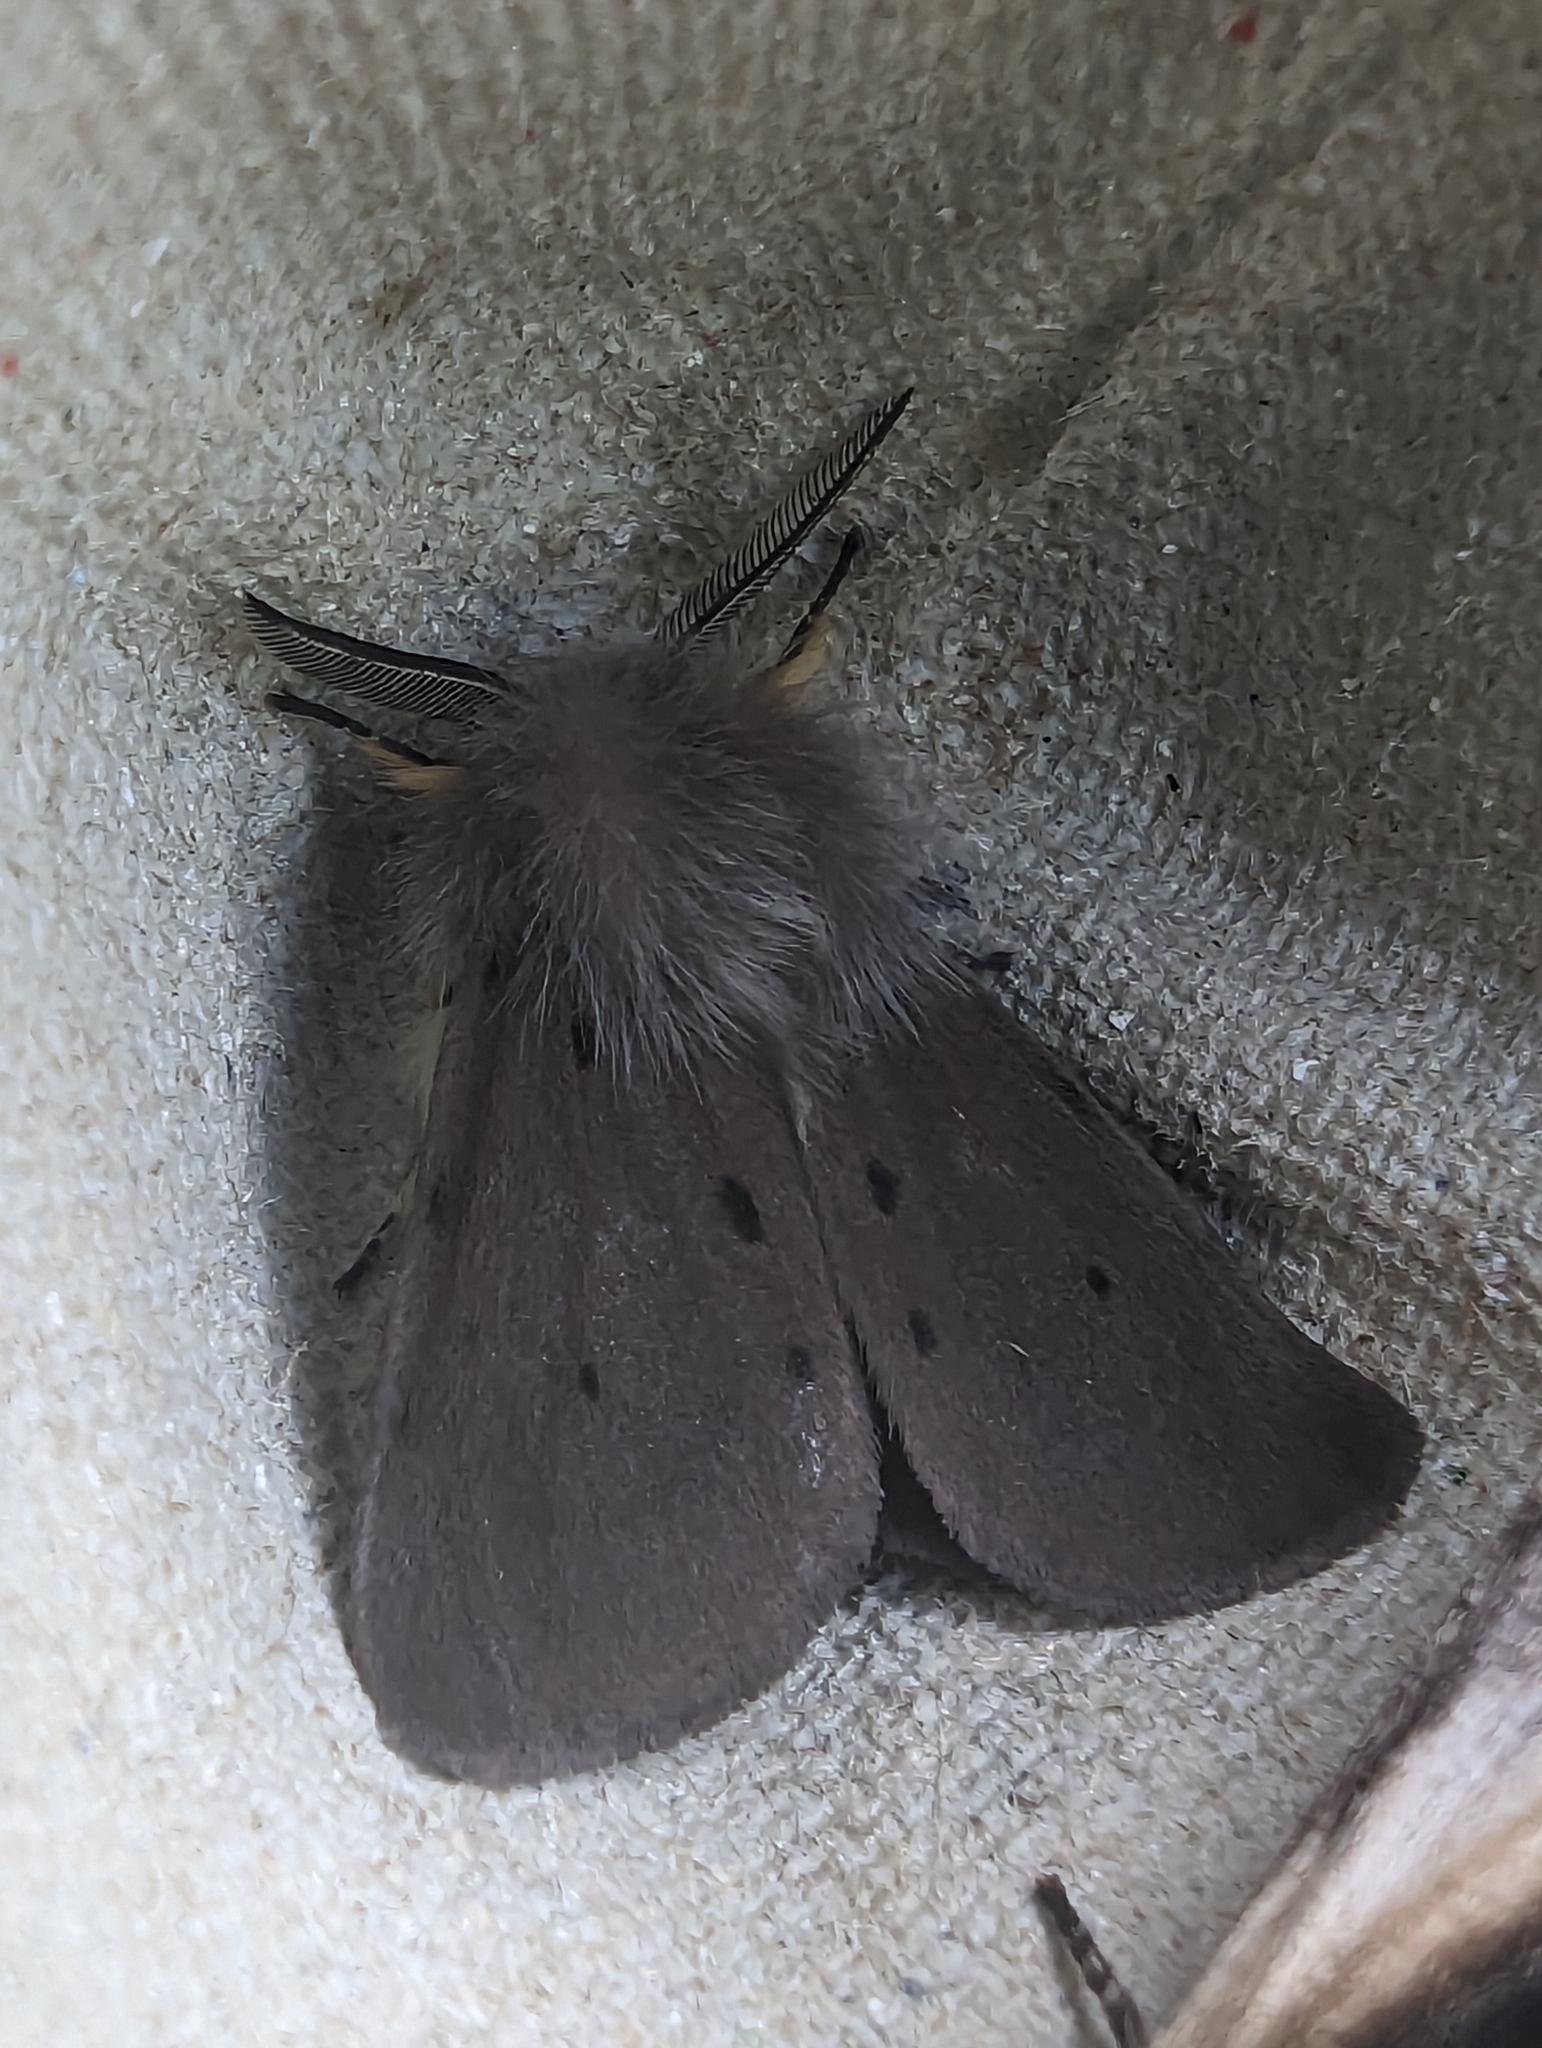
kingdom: Animalia
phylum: Arthropoda
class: Insecta
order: Lepidoptera
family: Erebidae
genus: Diaphora
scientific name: Diaphora mendica
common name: Muslin moth
